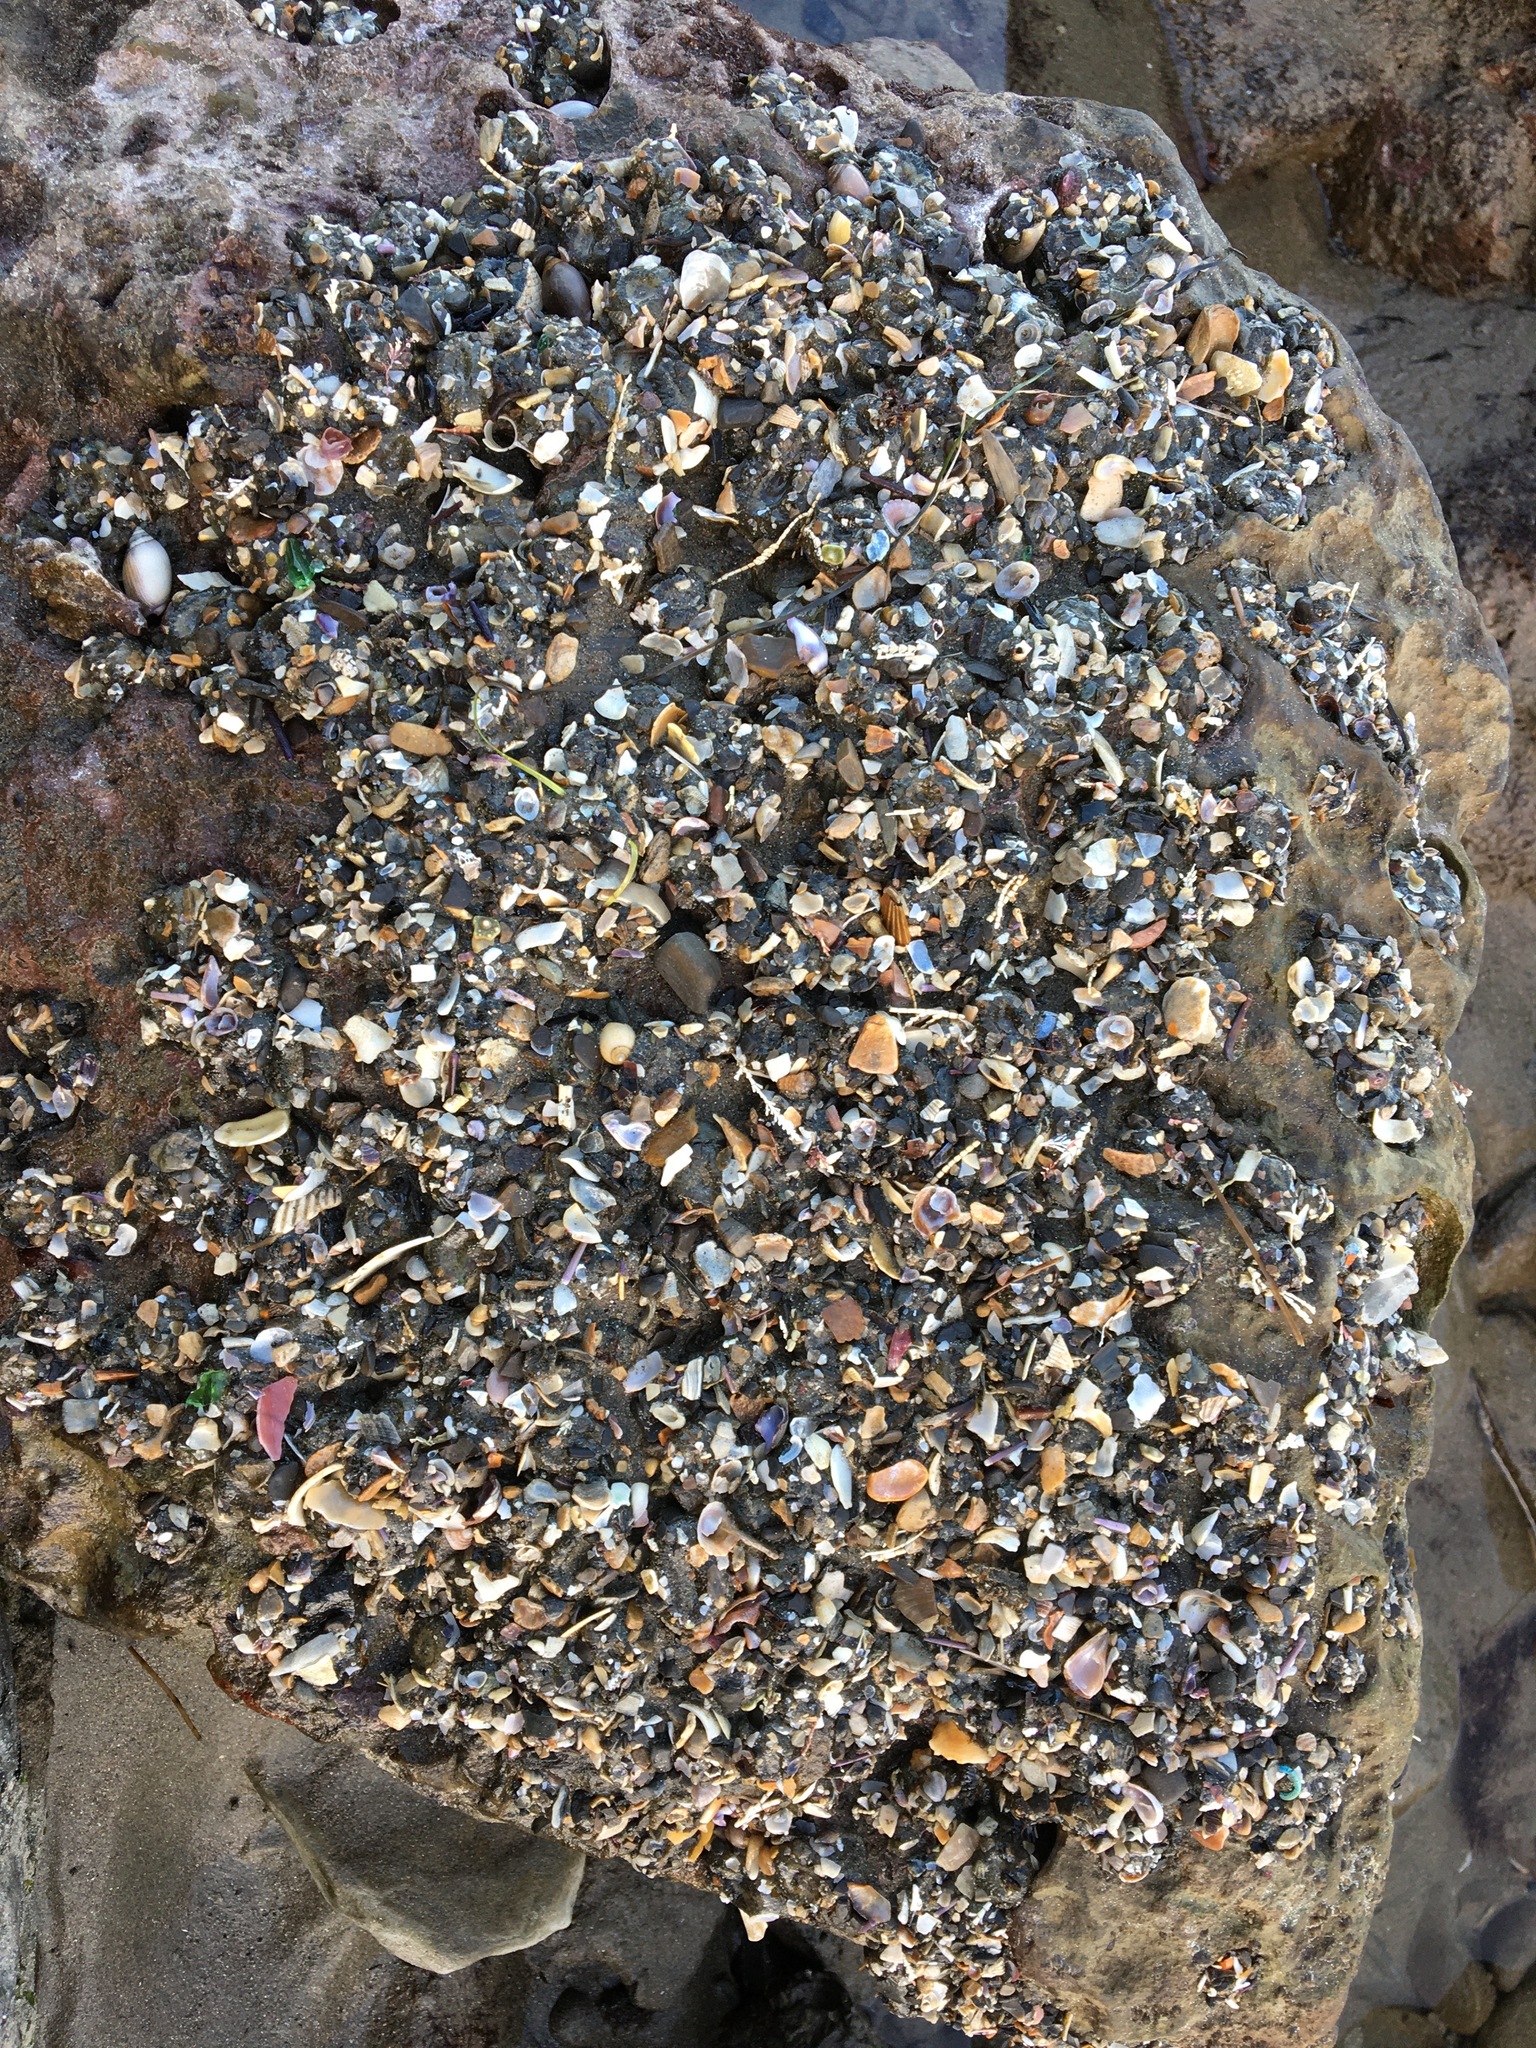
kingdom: Animalia
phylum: Cnidaria
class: Anthozoa
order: Actiniaria
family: Actiniidae
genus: Anthopleura
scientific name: Anthopleura elegantissima
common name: Clonal anemone
